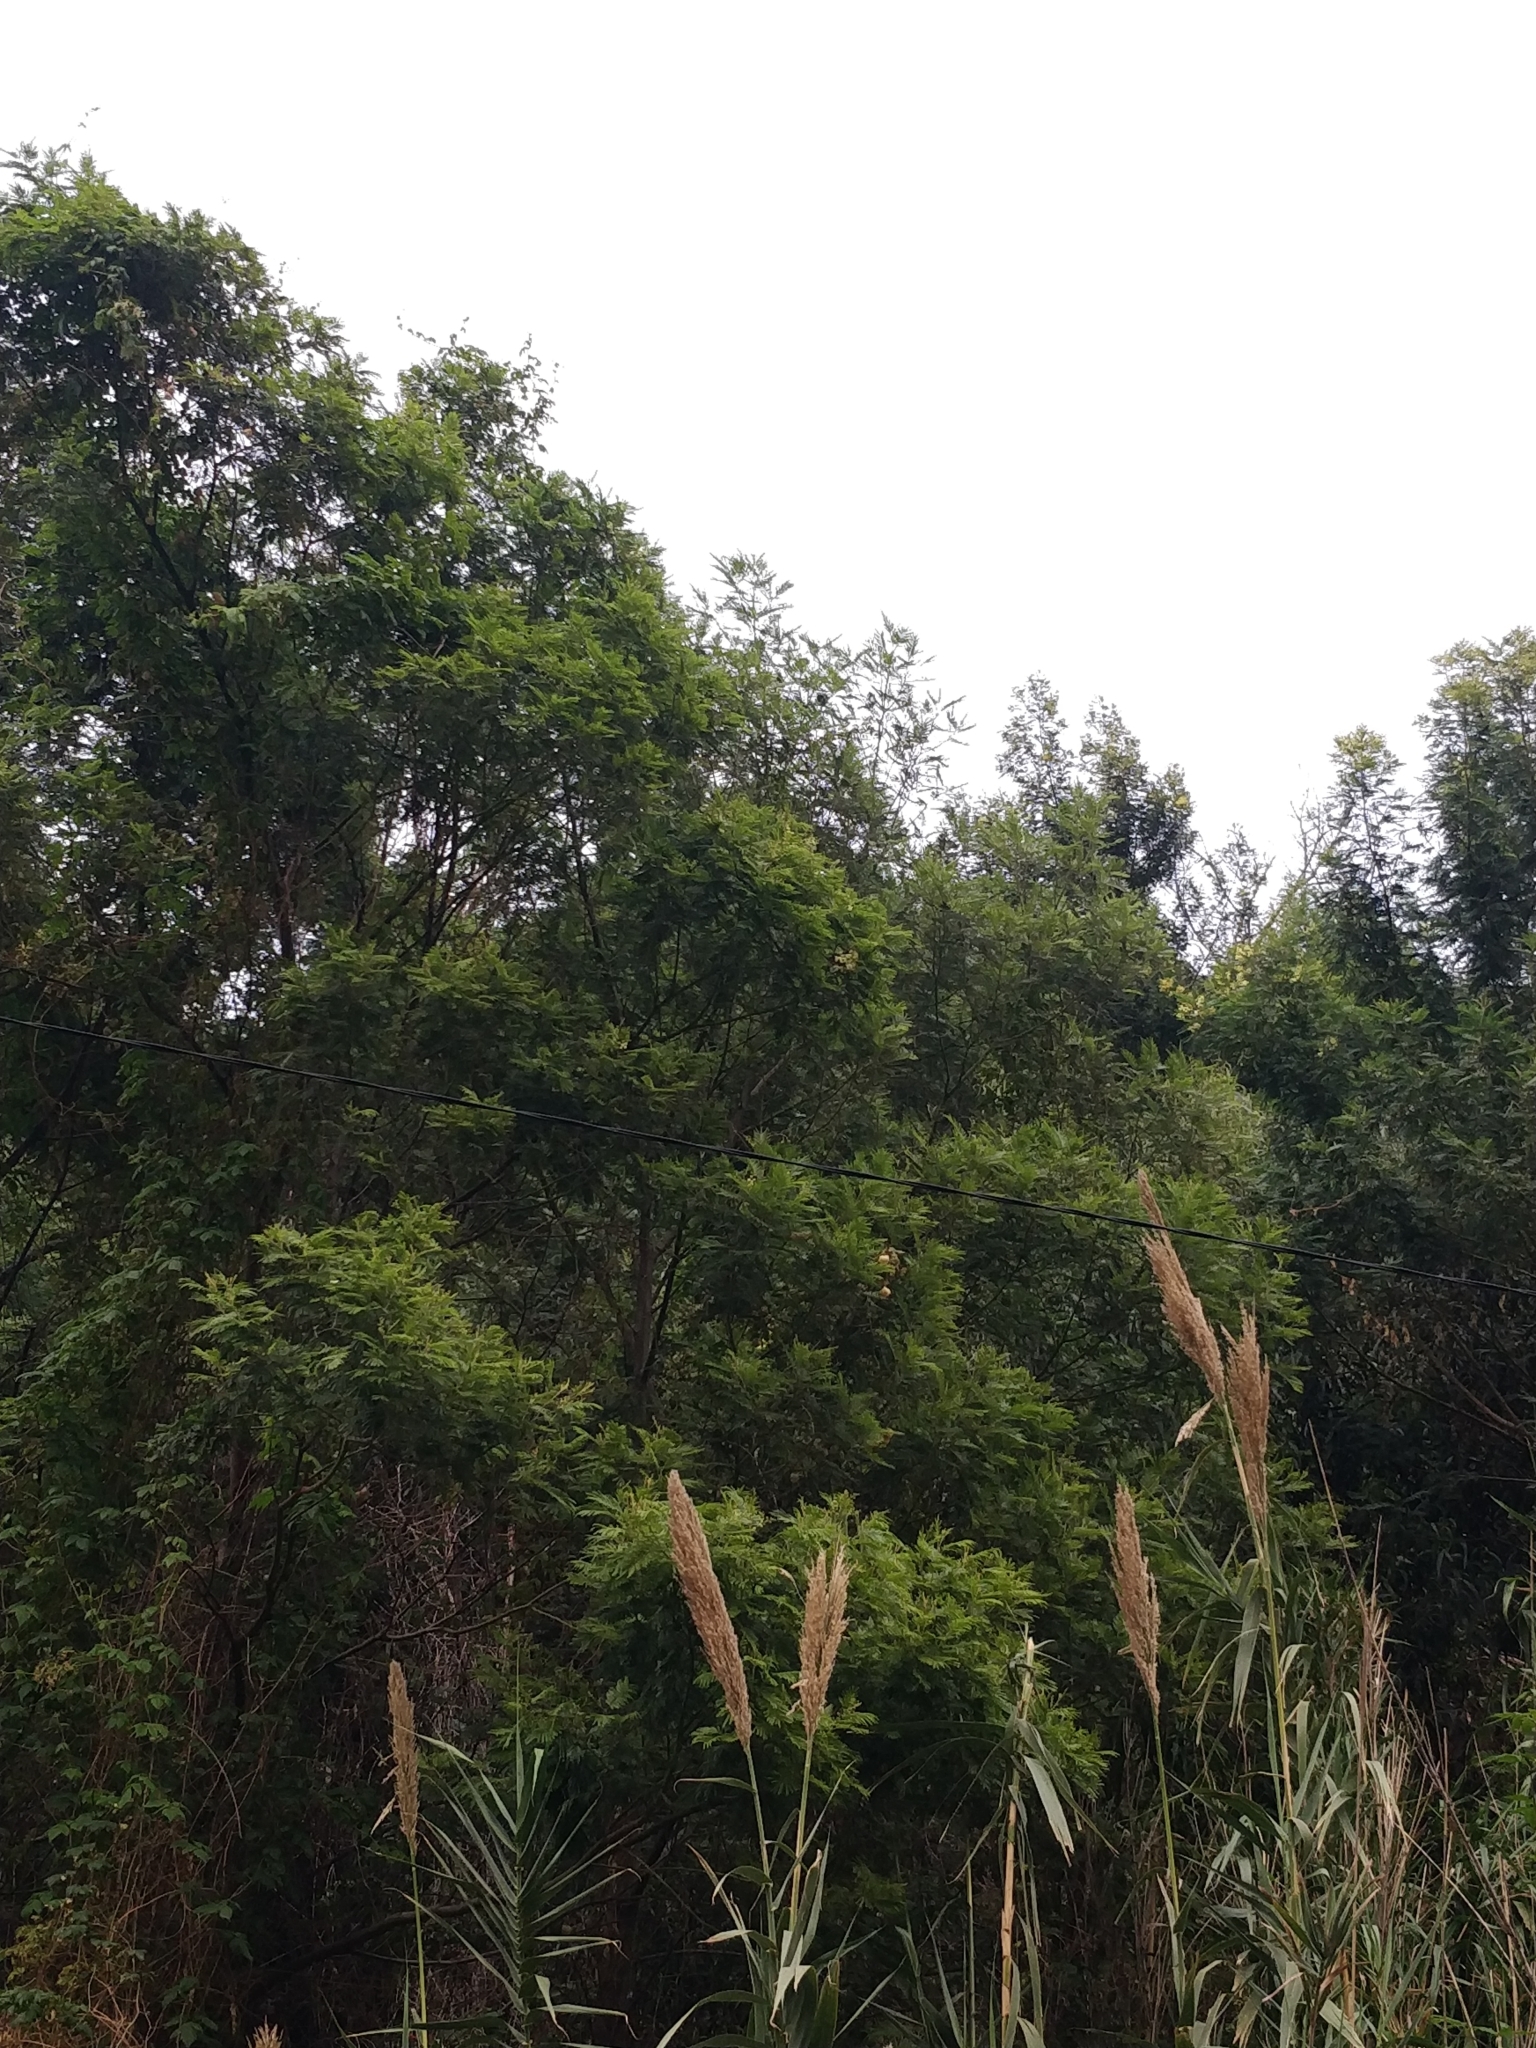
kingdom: Plantae
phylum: Tracheophyta
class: Magnoliopsida
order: Fabales
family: Fabaceae
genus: Acacia
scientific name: Acacia mearnsii
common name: Black wattle
